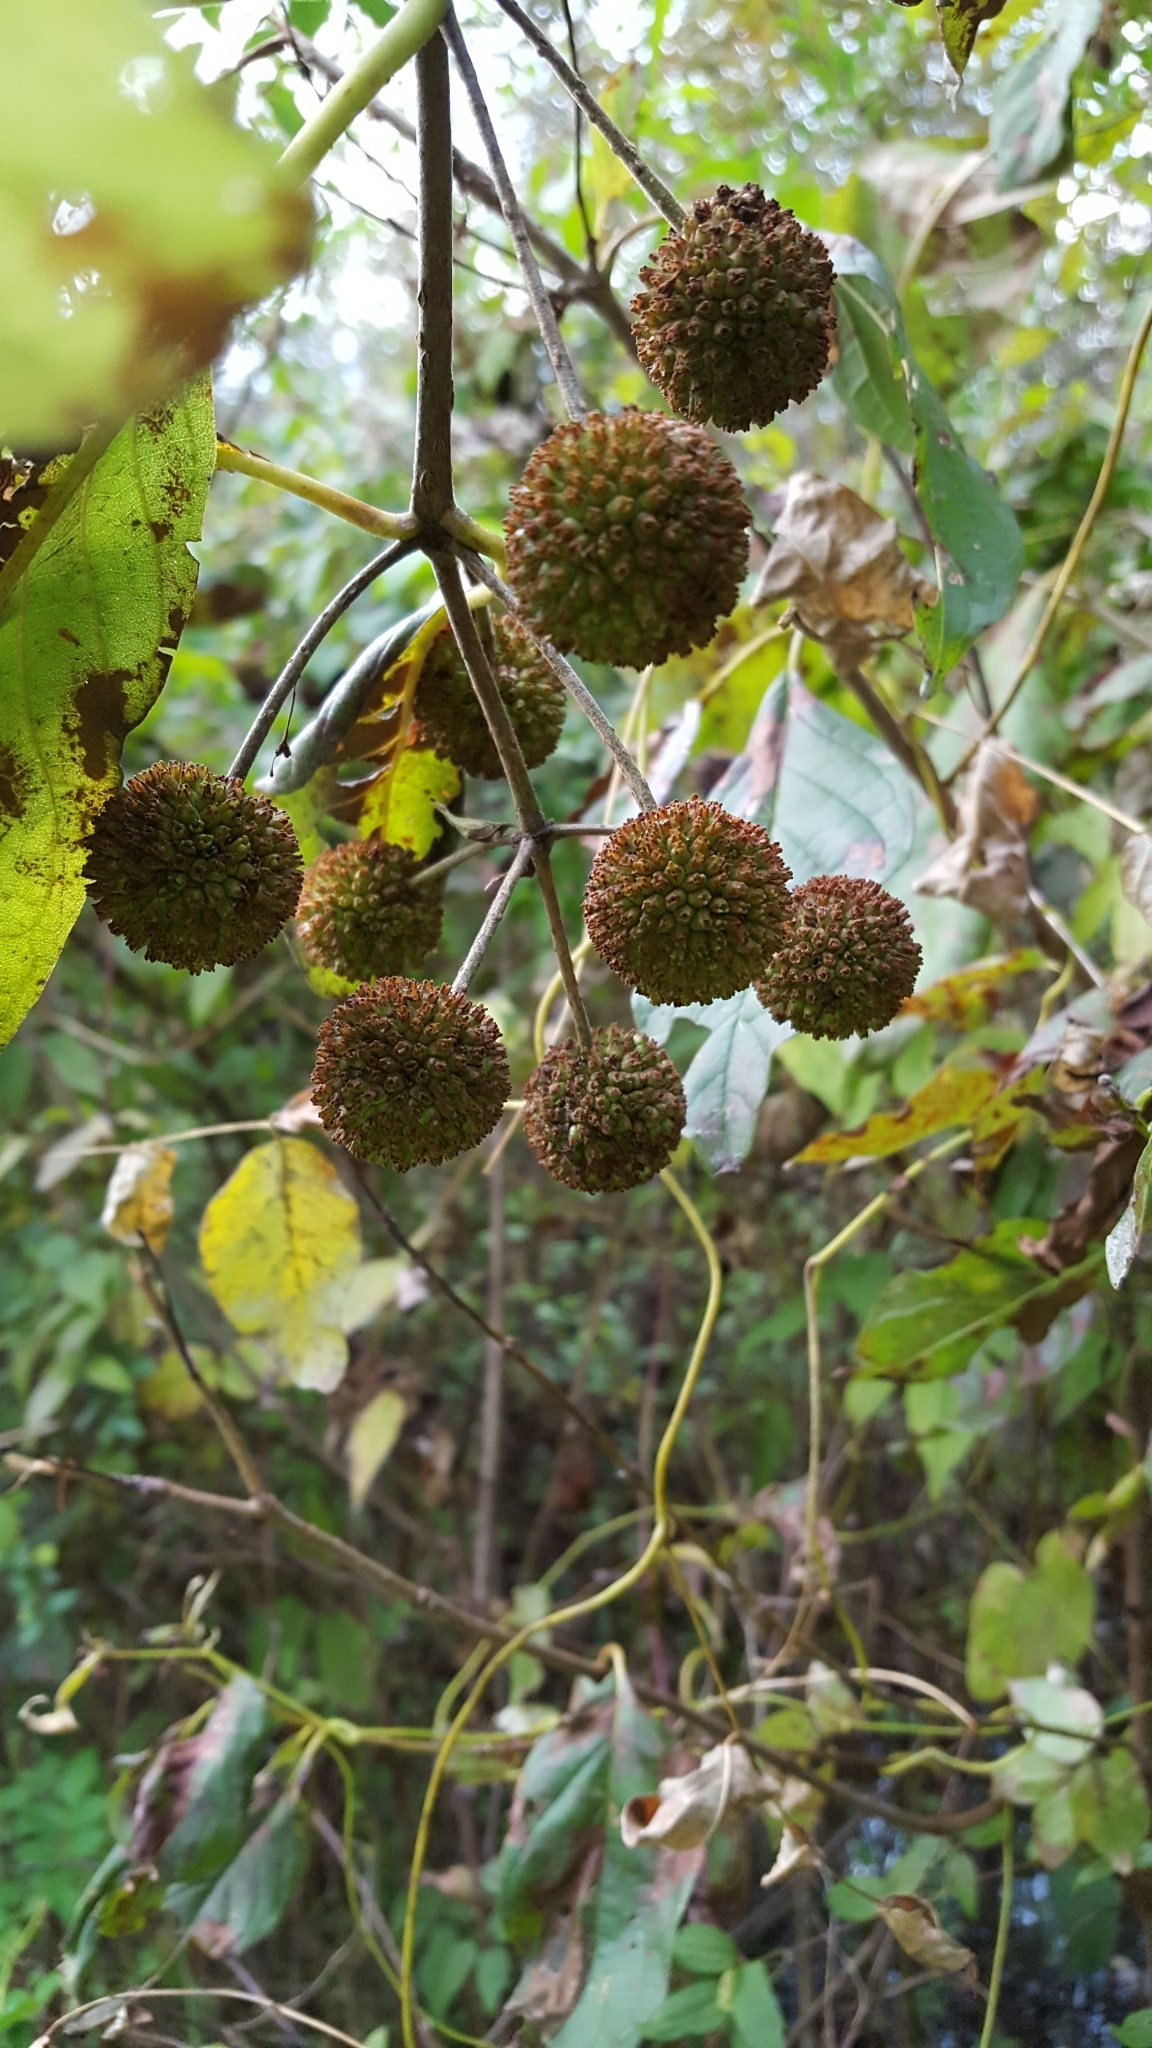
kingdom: Plantae
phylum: Tracheophyta
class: Magnoliopsida
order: Gentianales
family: Rubiaceae
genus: Cephalanthus
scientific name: Cephalanthus occidentalis
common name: Button-willow
